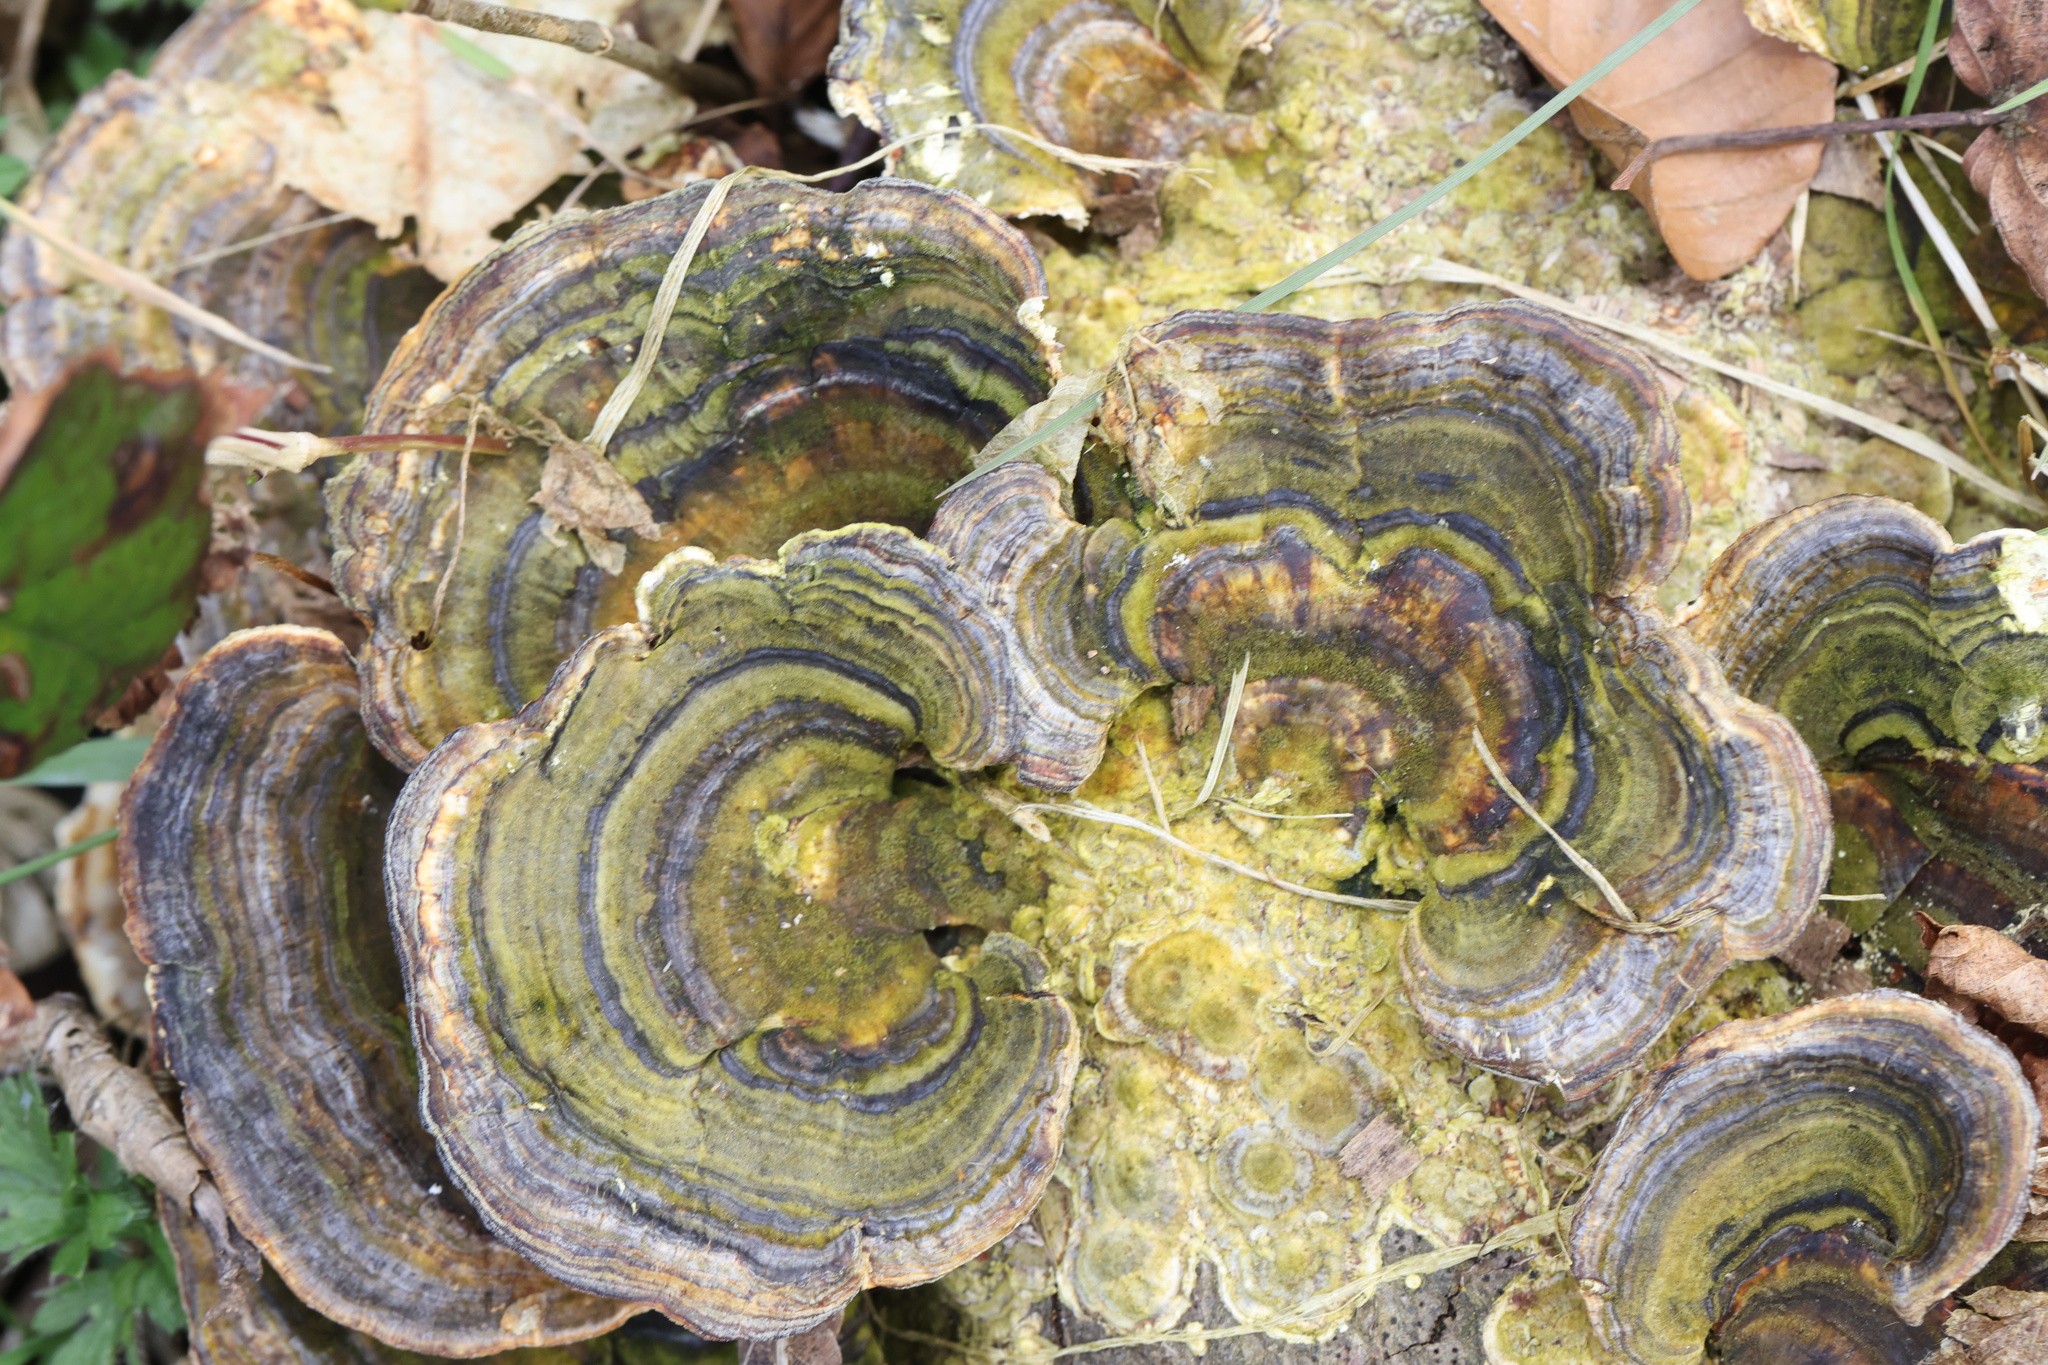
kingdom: Fungi
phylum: Basidiomycota
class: Agaricomycetes
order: Polyporales
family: Polyporaceae
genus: Trametes
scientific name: Trametes versicolor
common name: Turkeytail
